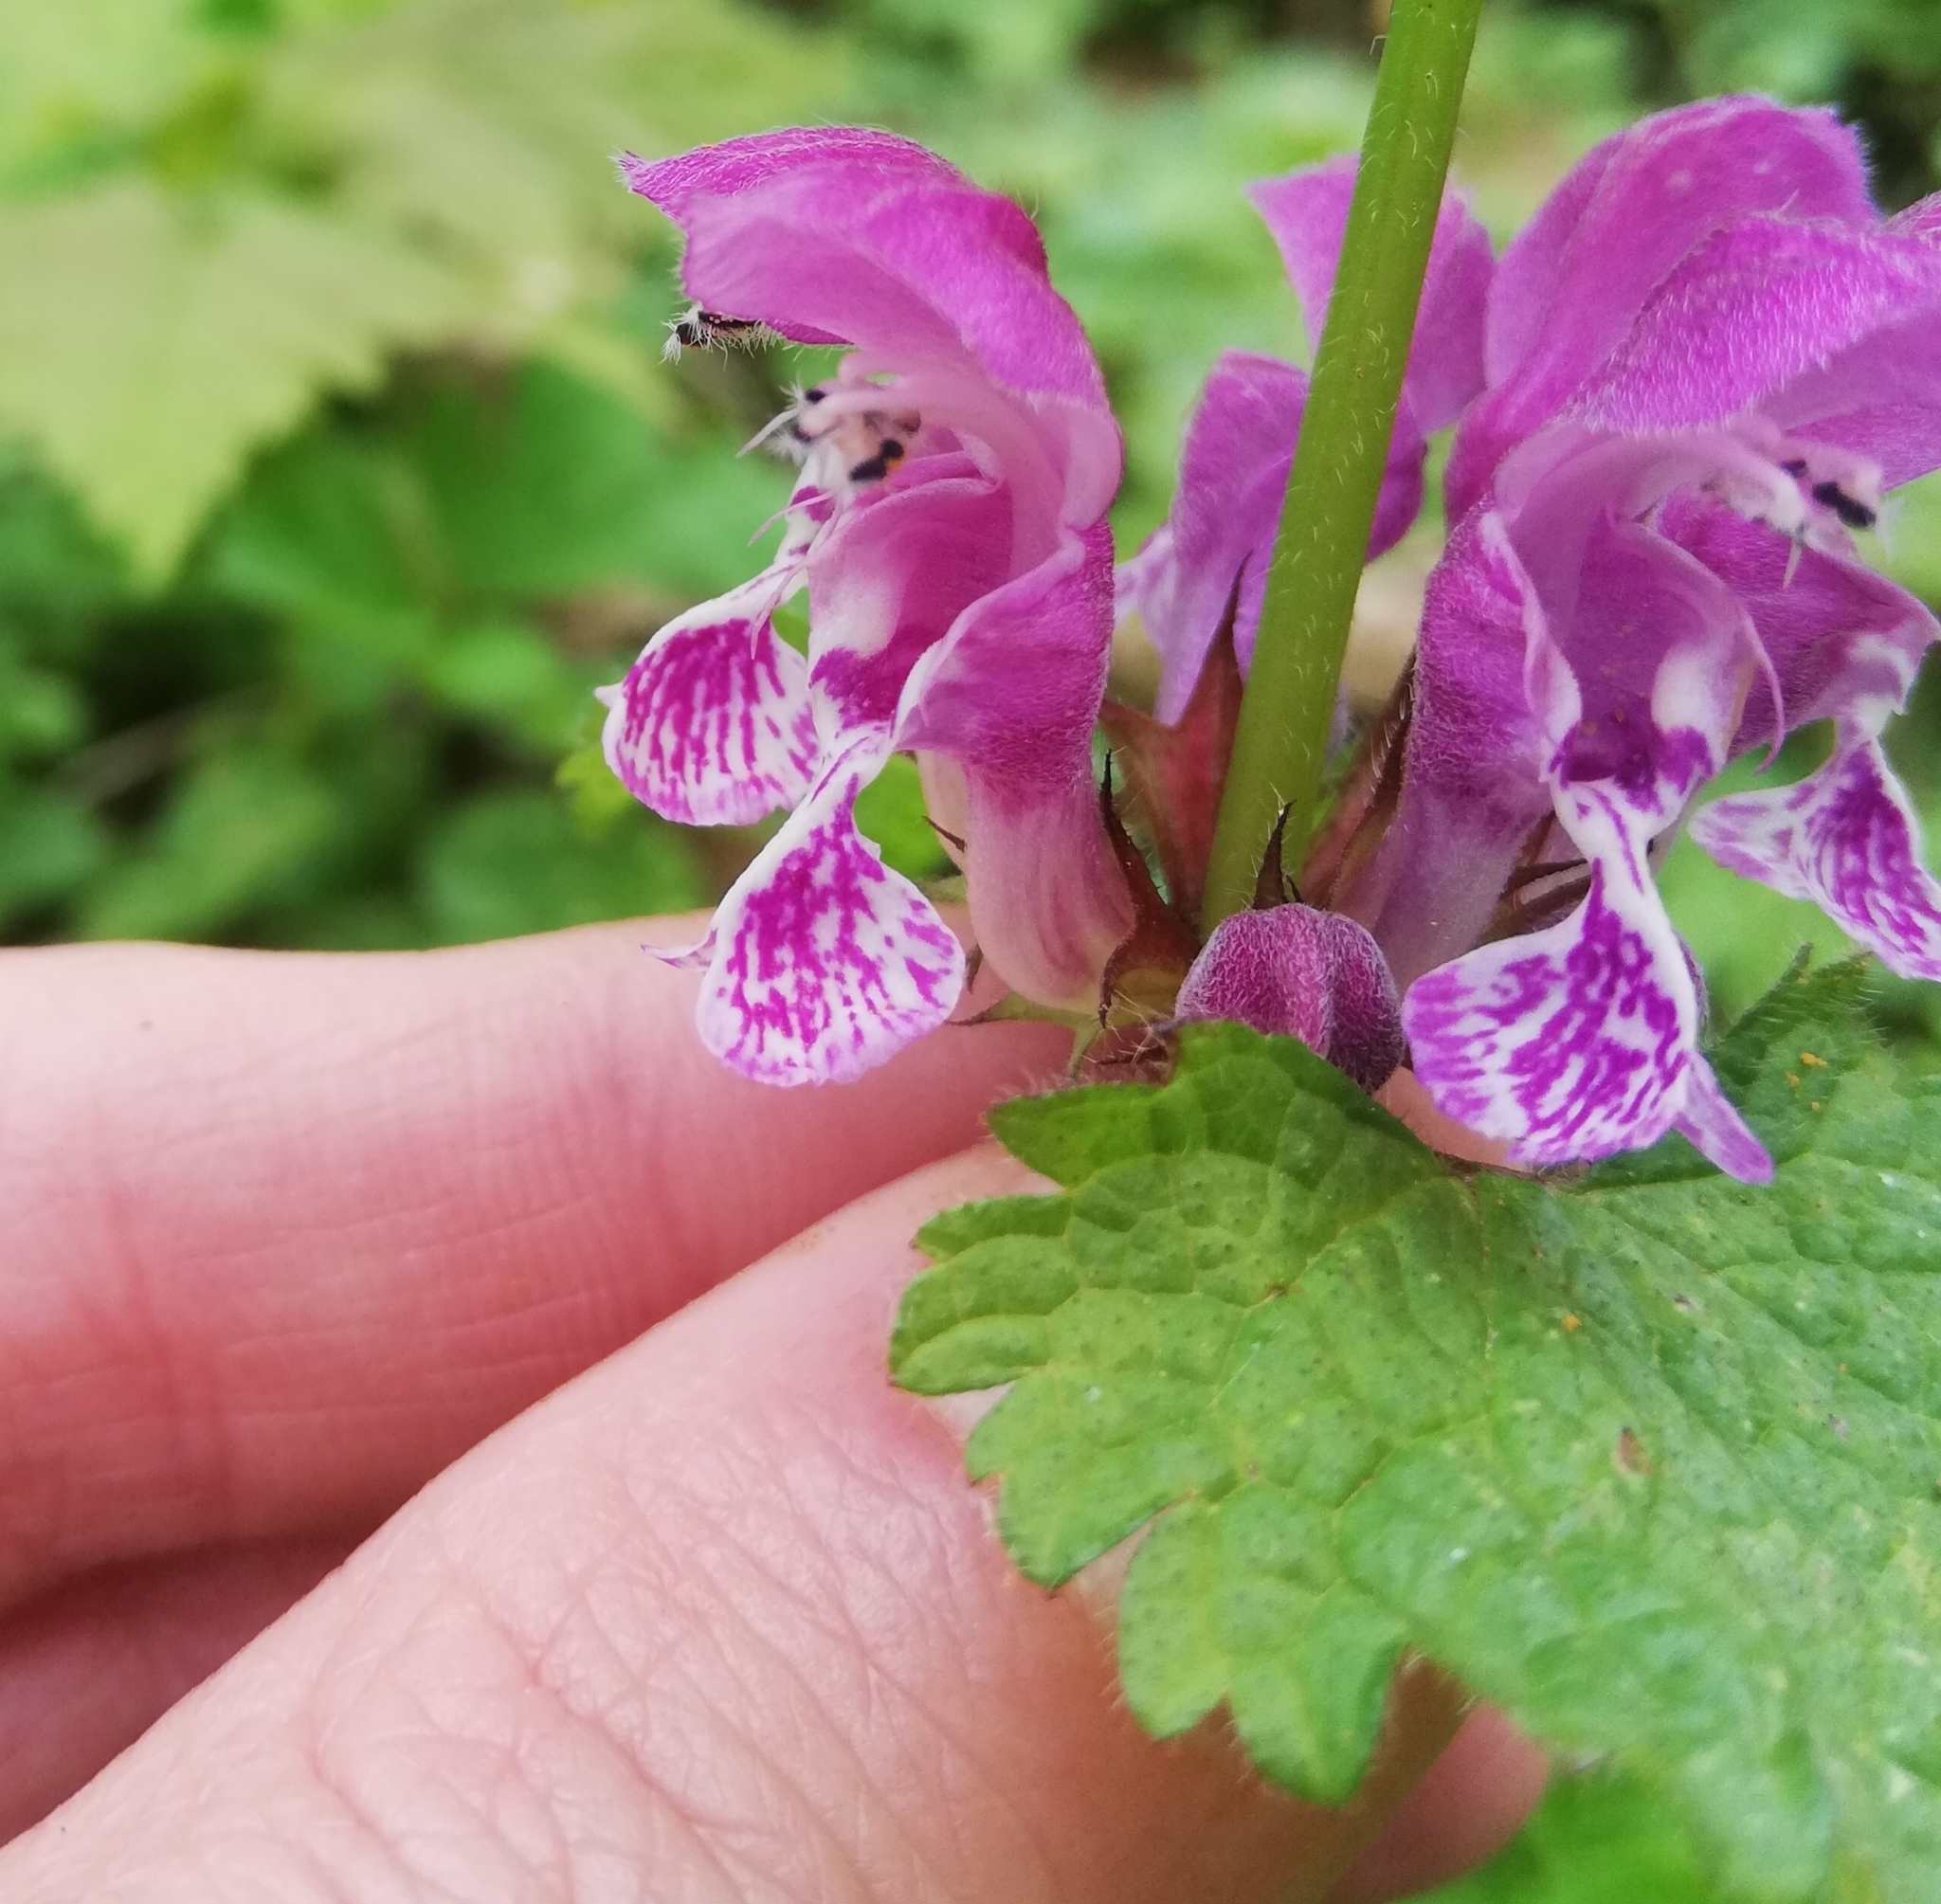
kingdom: Plantae
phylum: Tracheophyta
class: Magnoliopsida
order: Lamiales
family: Lamiaceae
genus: Lamium
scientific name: Lamium maculatum
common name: Spotted dead-nettle
